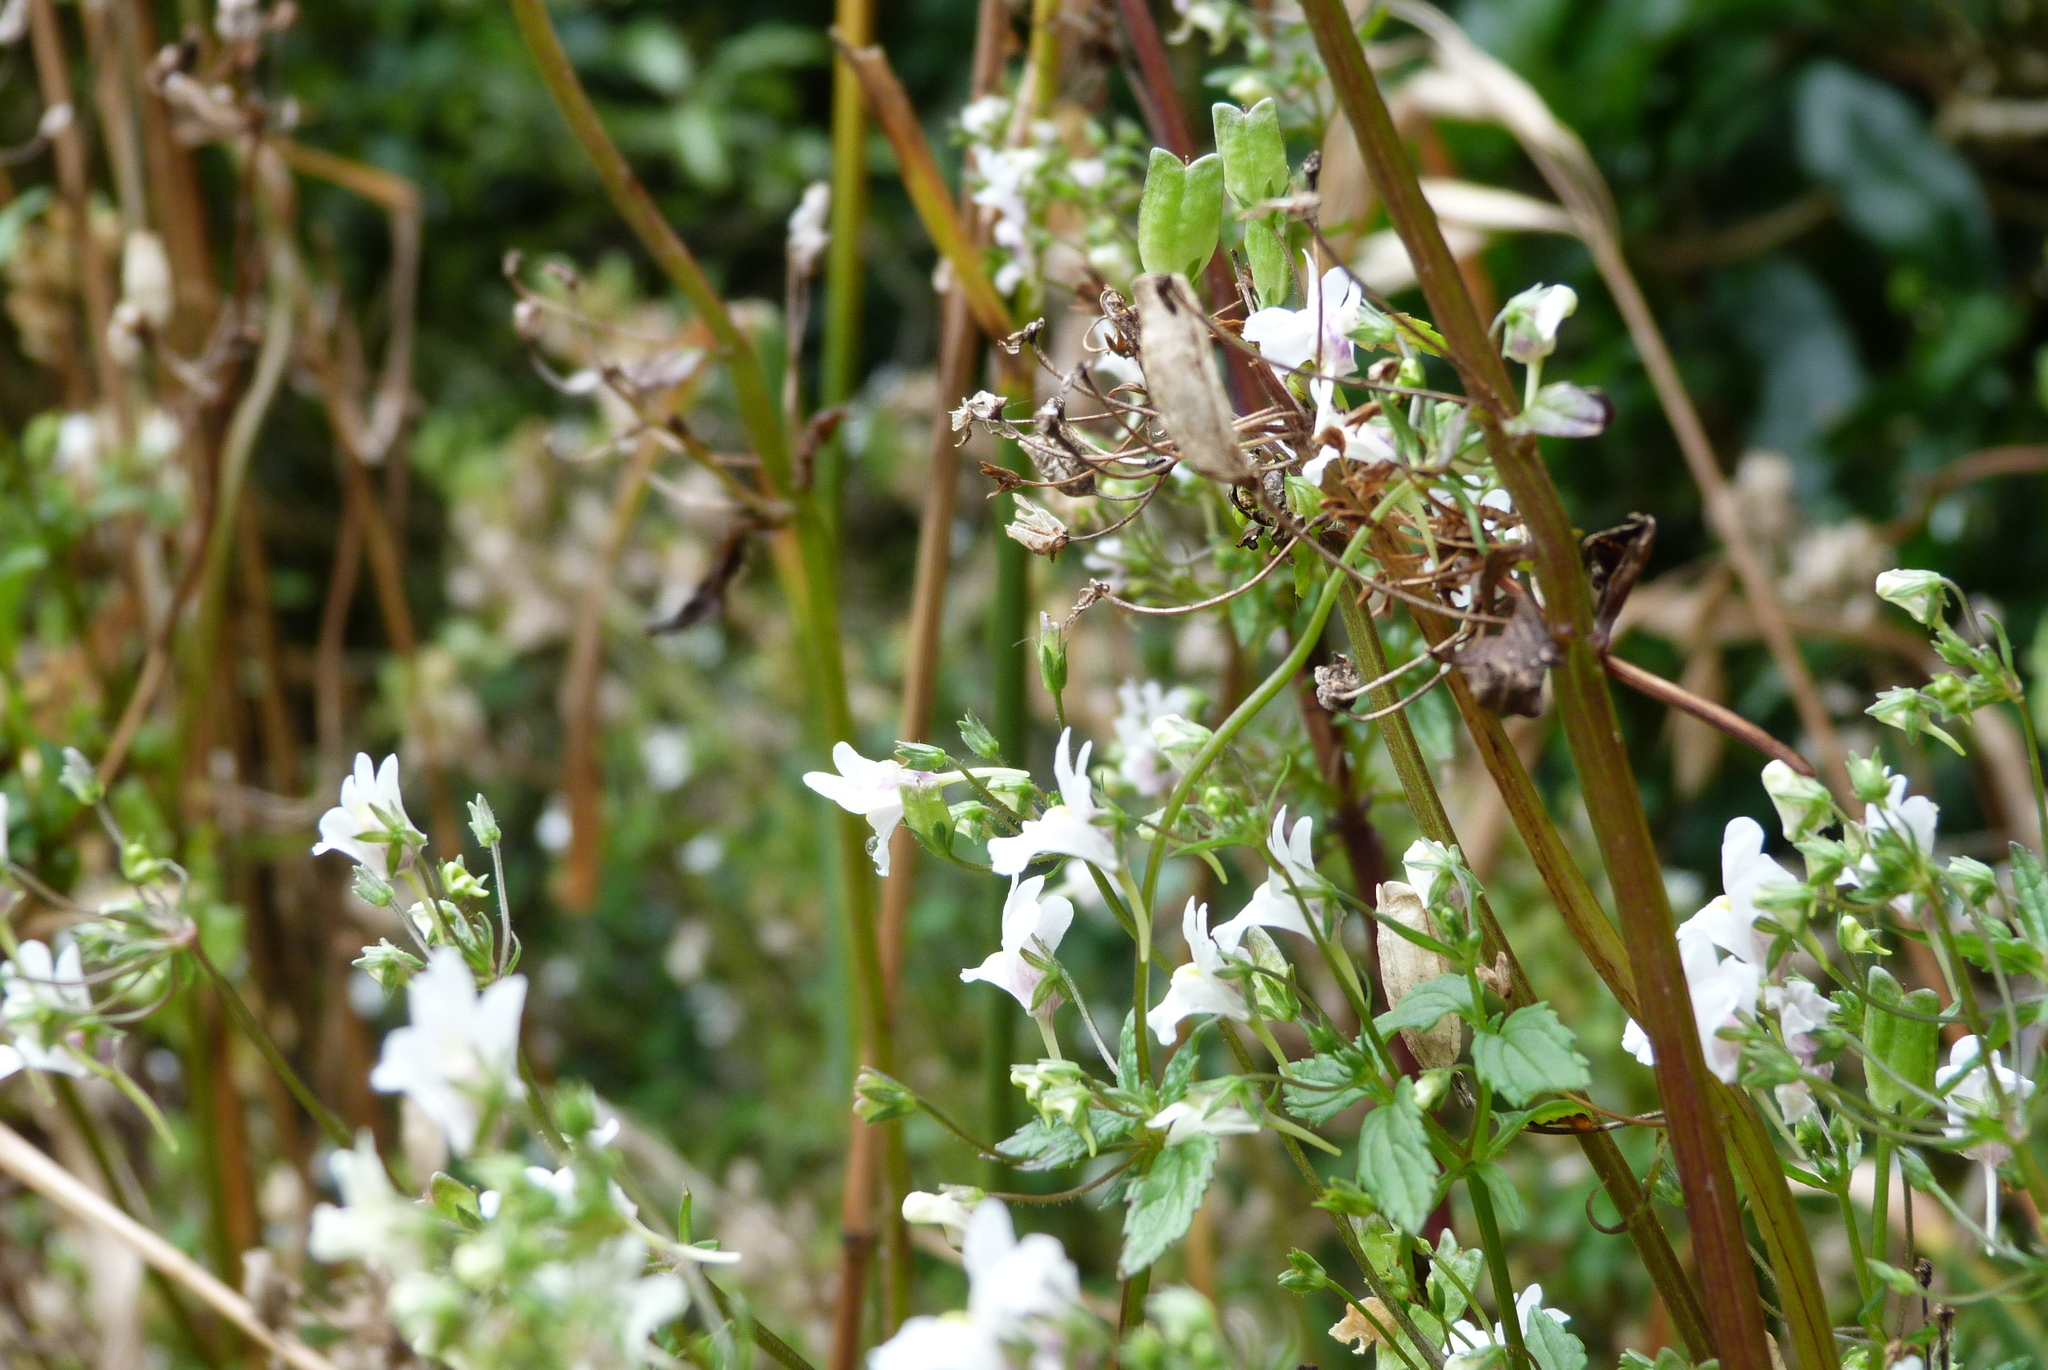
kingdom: Plantae
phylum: Tracheophyta
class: Magnoliopsida
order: Lamiales
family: Scrophulariaceae
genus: Nemesia
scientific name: Nemesia floribunda
